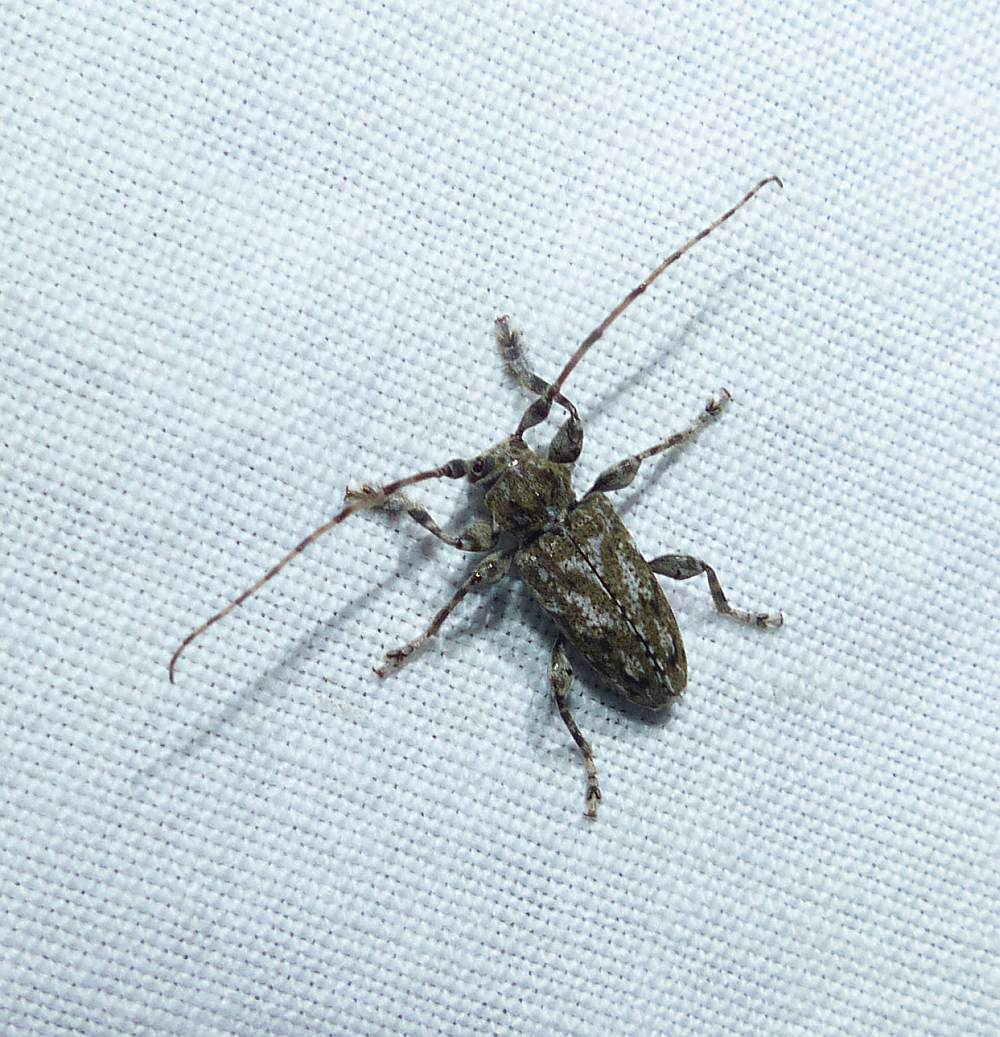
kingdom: Animalia
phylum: Arthropoda
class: Insecta
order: Coleoptera
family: Cerambycidae
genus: Aegomorphus
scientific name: Aegomorphus modestus
